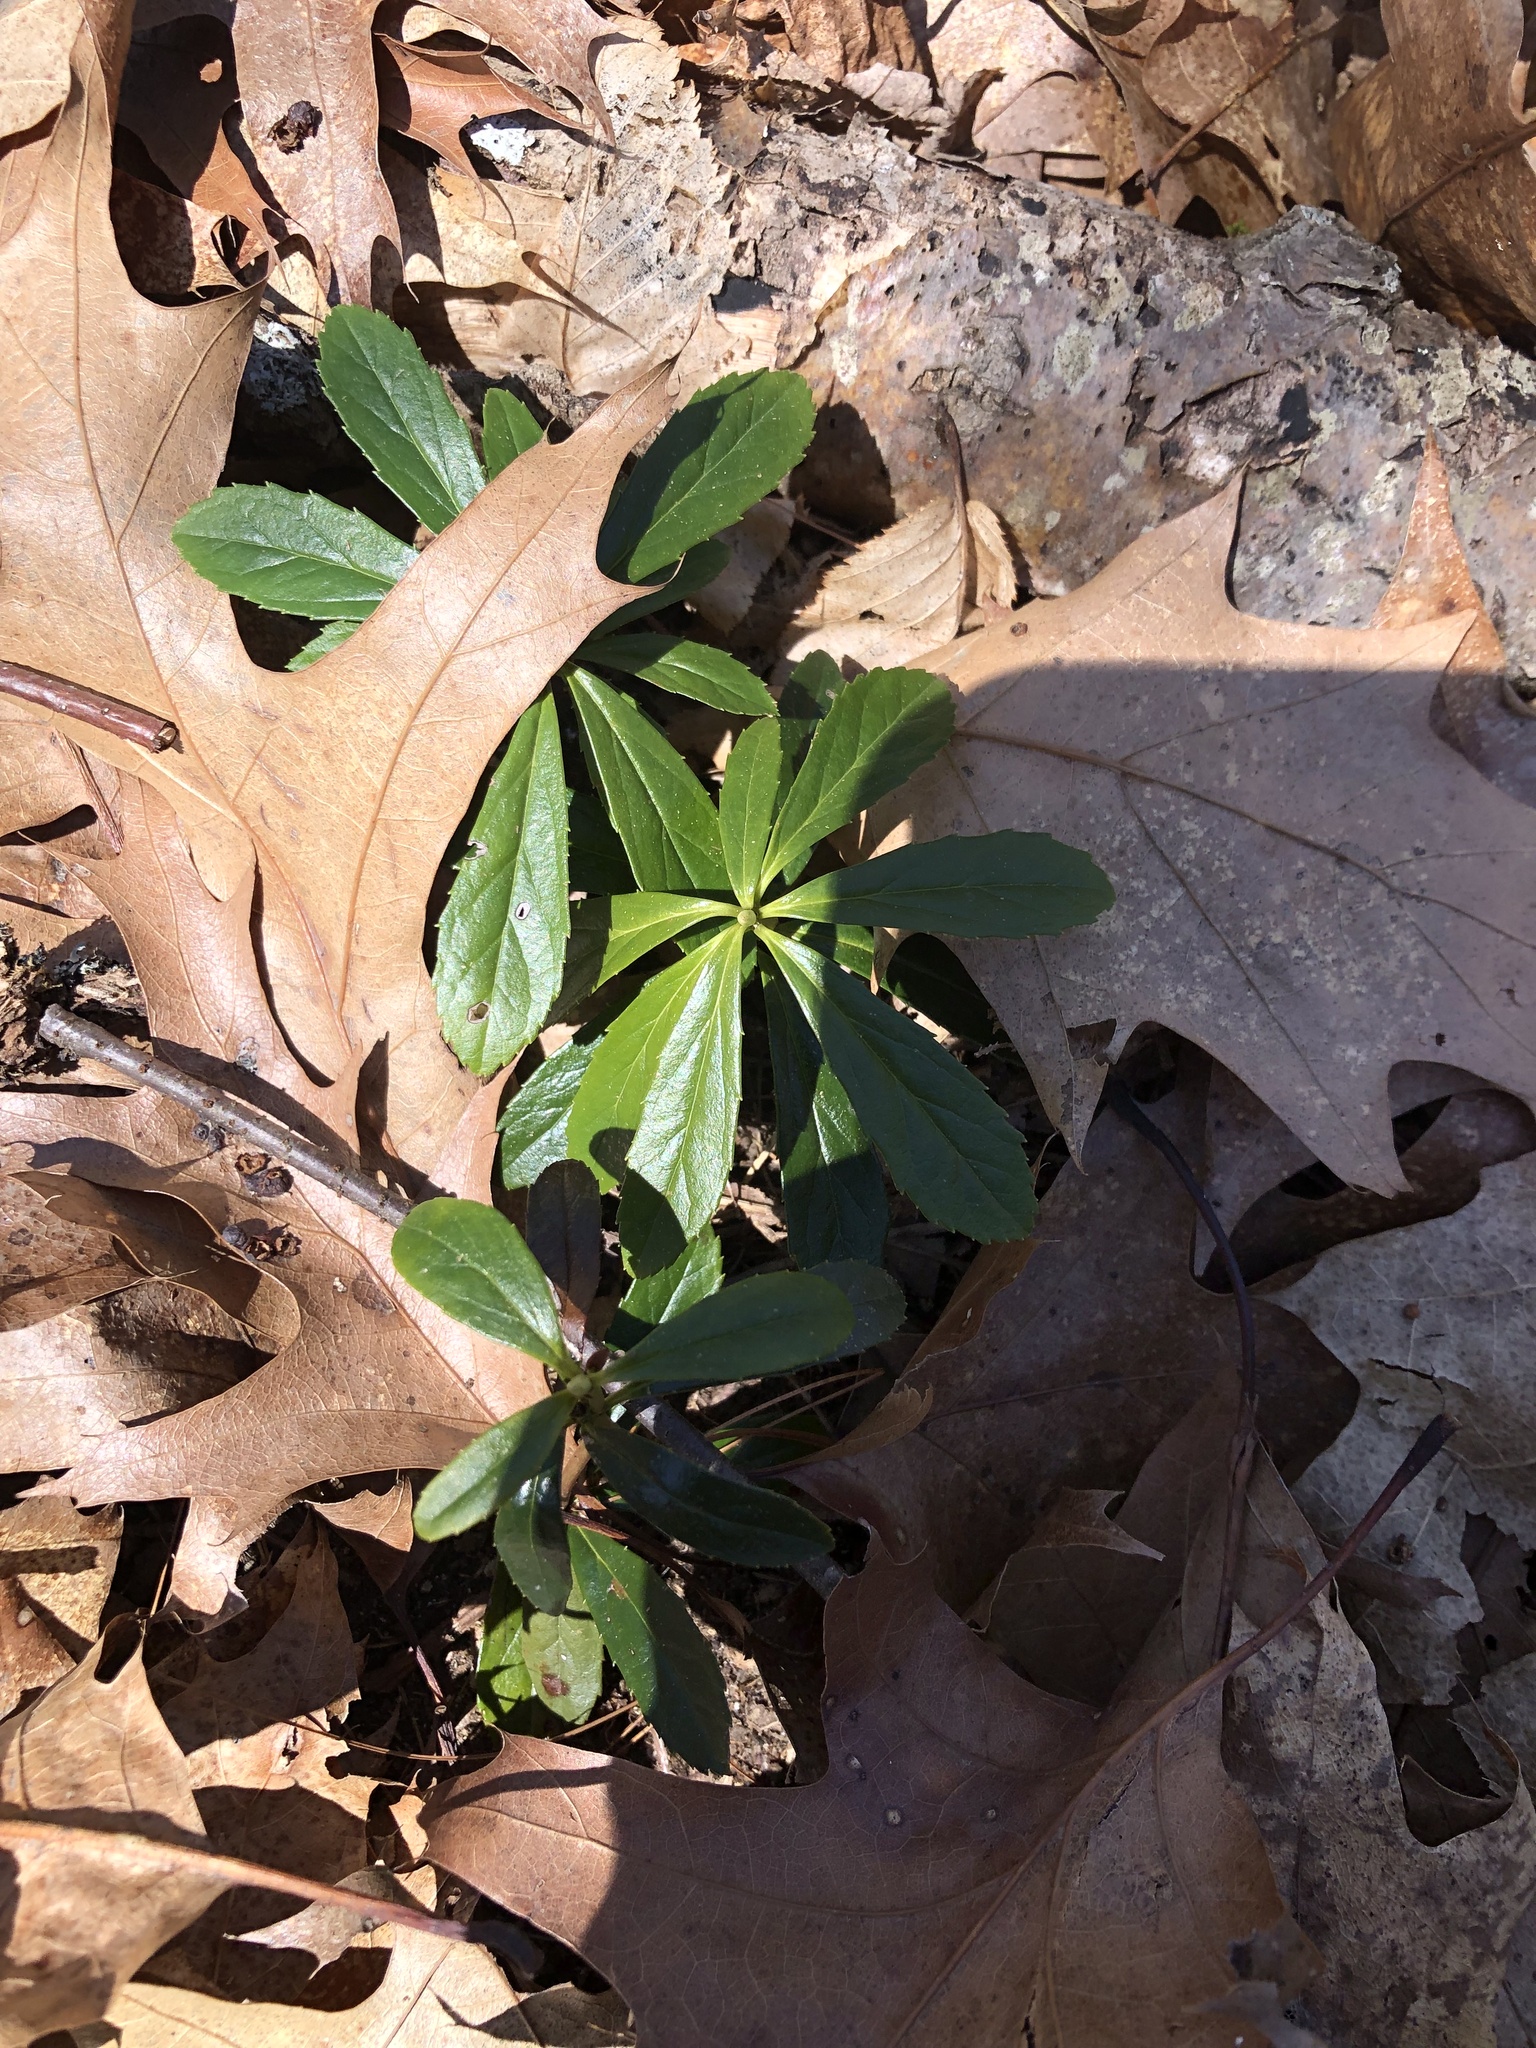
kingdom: Plantae
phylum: Tracheophyta
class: Magnoliopsida
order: Ericales
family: Ericaceae
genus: Chimaphila
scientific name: Chimaphila umbellata
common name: Pipsissewa
